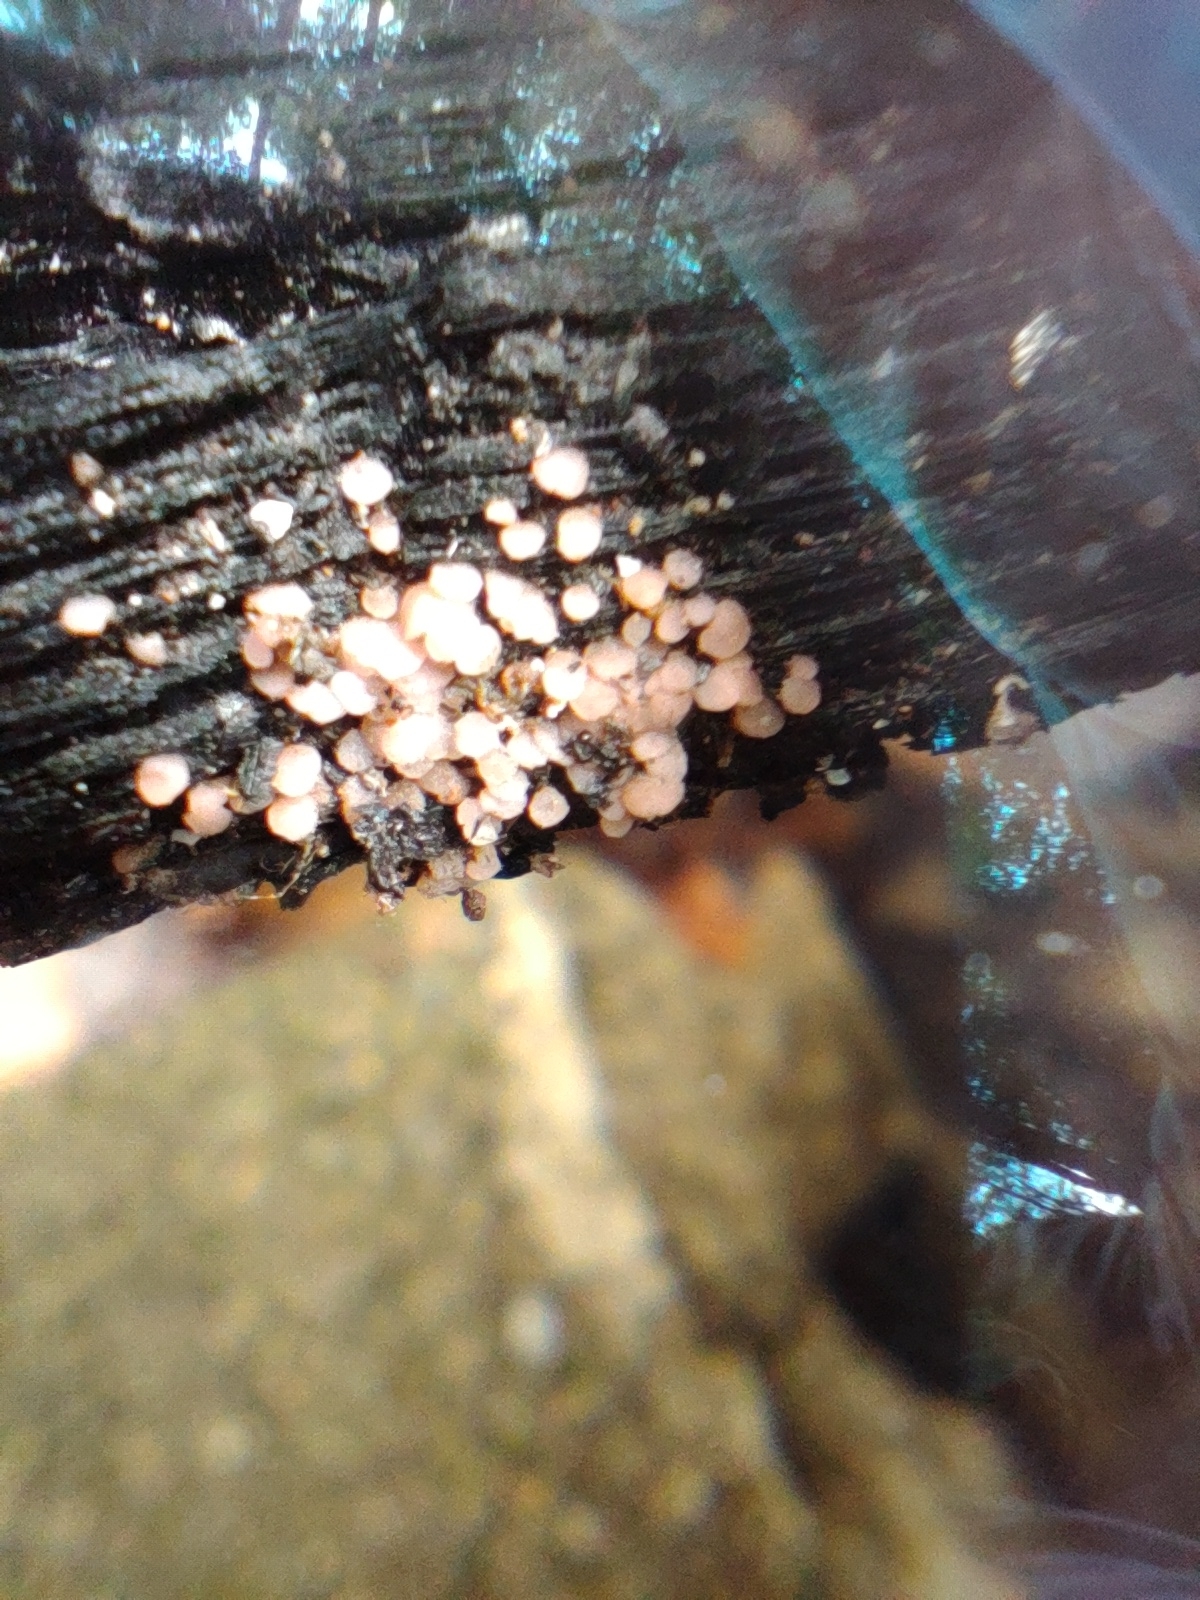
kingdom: Fungi
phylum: Ascomycota
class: Pezizomycetes
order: Pezizales
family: Pyronemataceae
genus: Pyronema
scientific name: Pyronema domesticum
